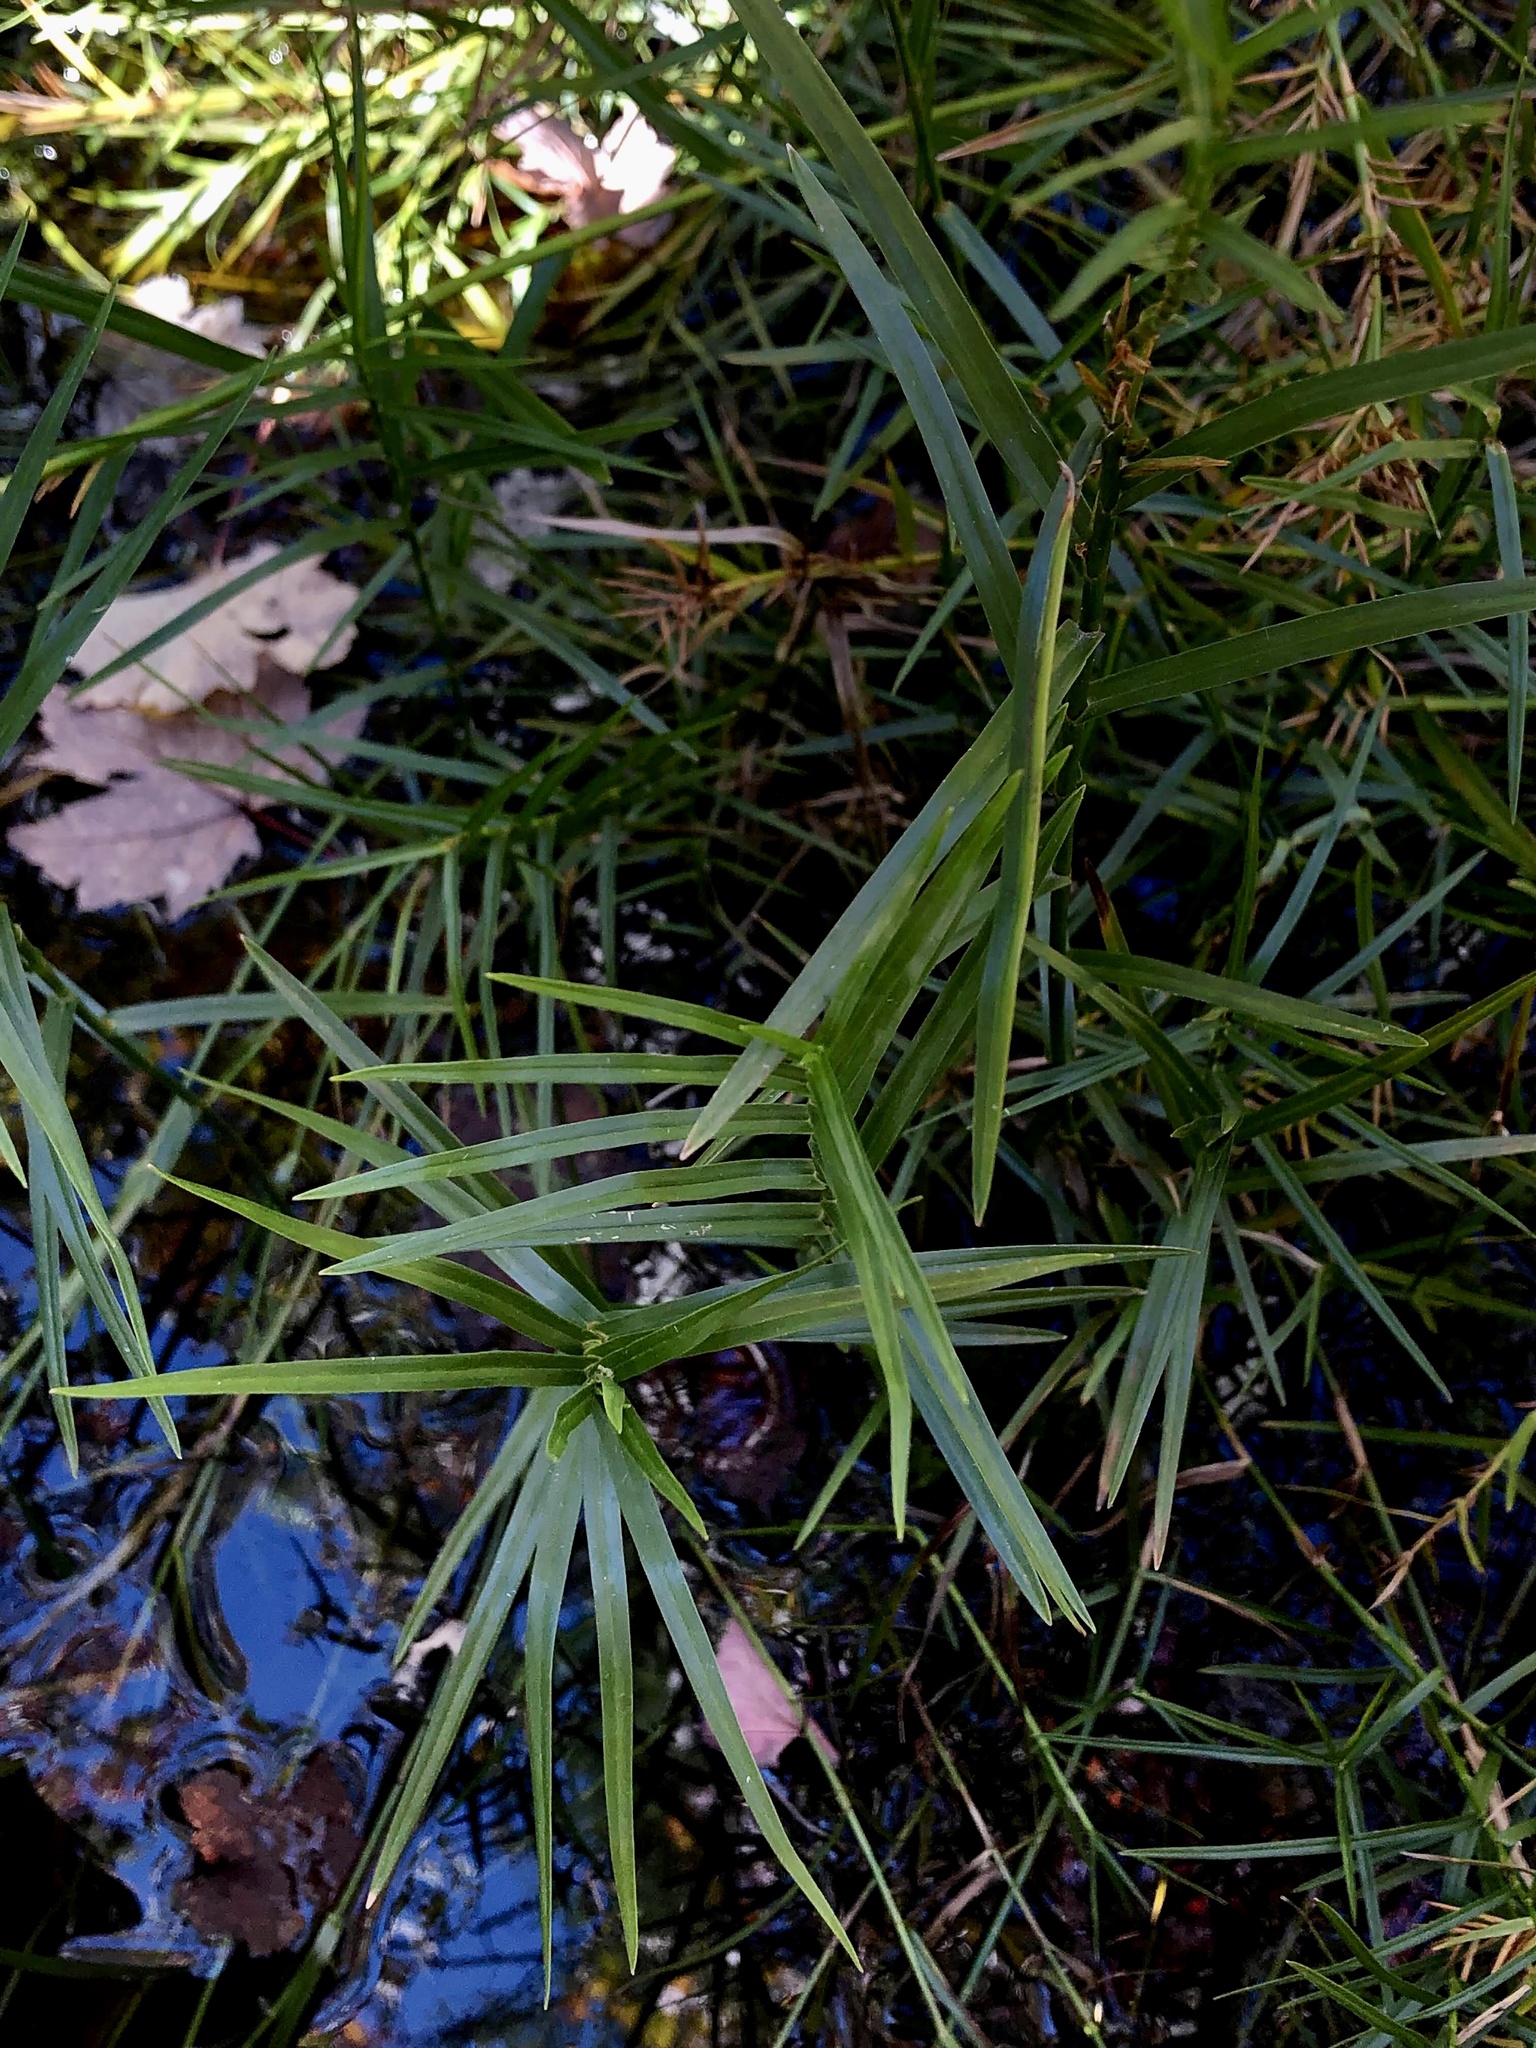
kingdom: Plantae
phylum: Tracheophyta
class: Liliopsida
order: Poales
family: Cyperaceae
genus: Dulichium
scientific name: Dulichium arundinaceum
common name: Three-way sedge
